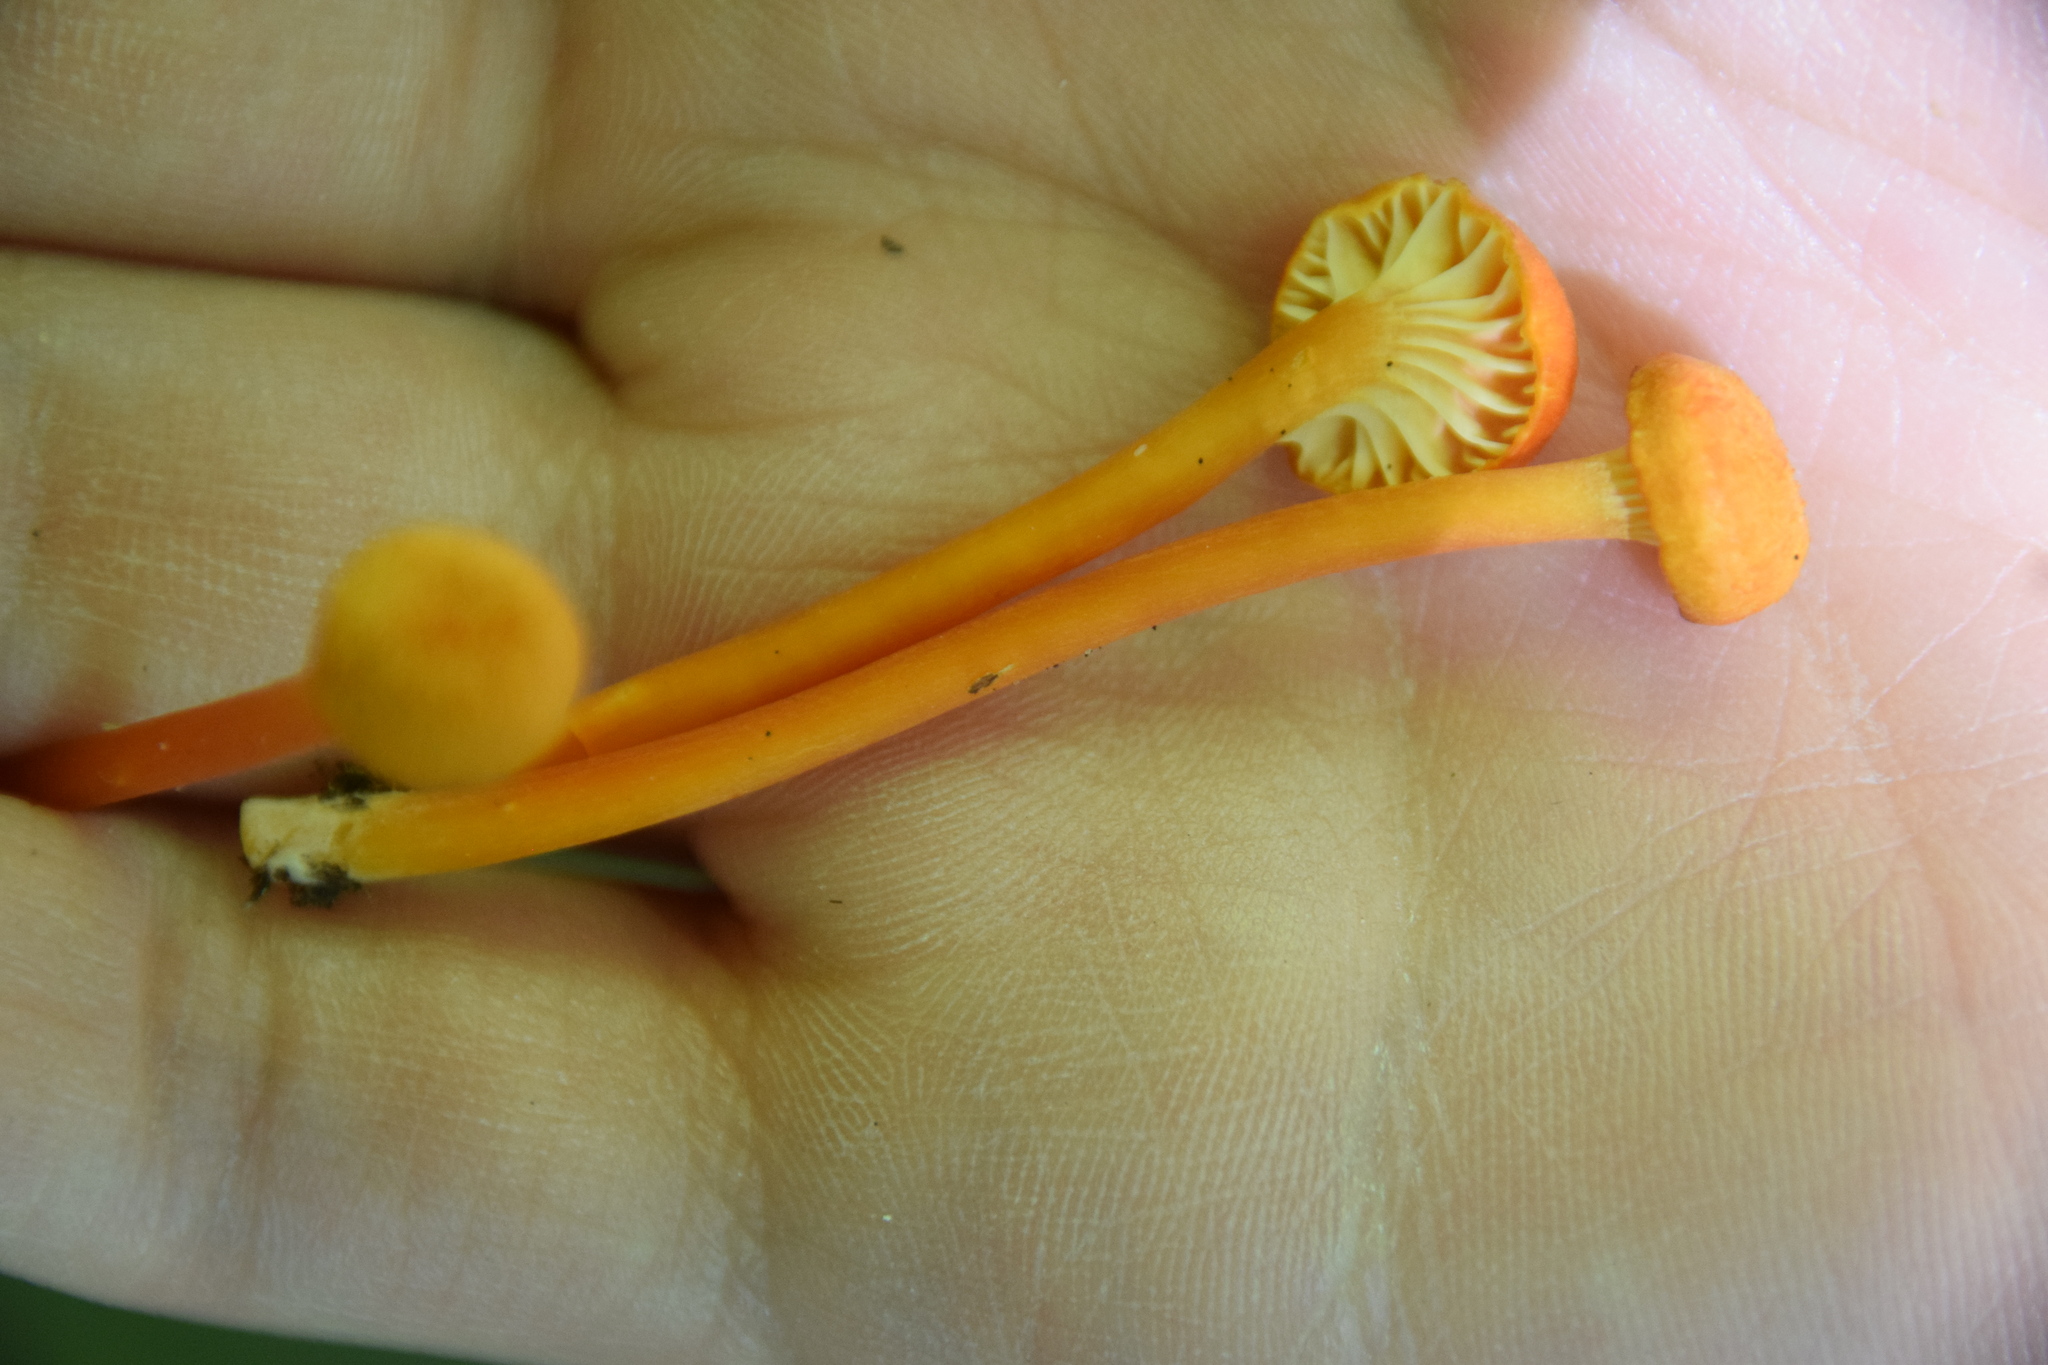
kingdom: Fungi
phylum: Basidiomycota
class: Agaricomycetes
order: Agaricales
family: Hygrophoraceae
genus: Hygrocybe
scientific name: Hygrocybe cantharellus
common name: Goblet waxcap
